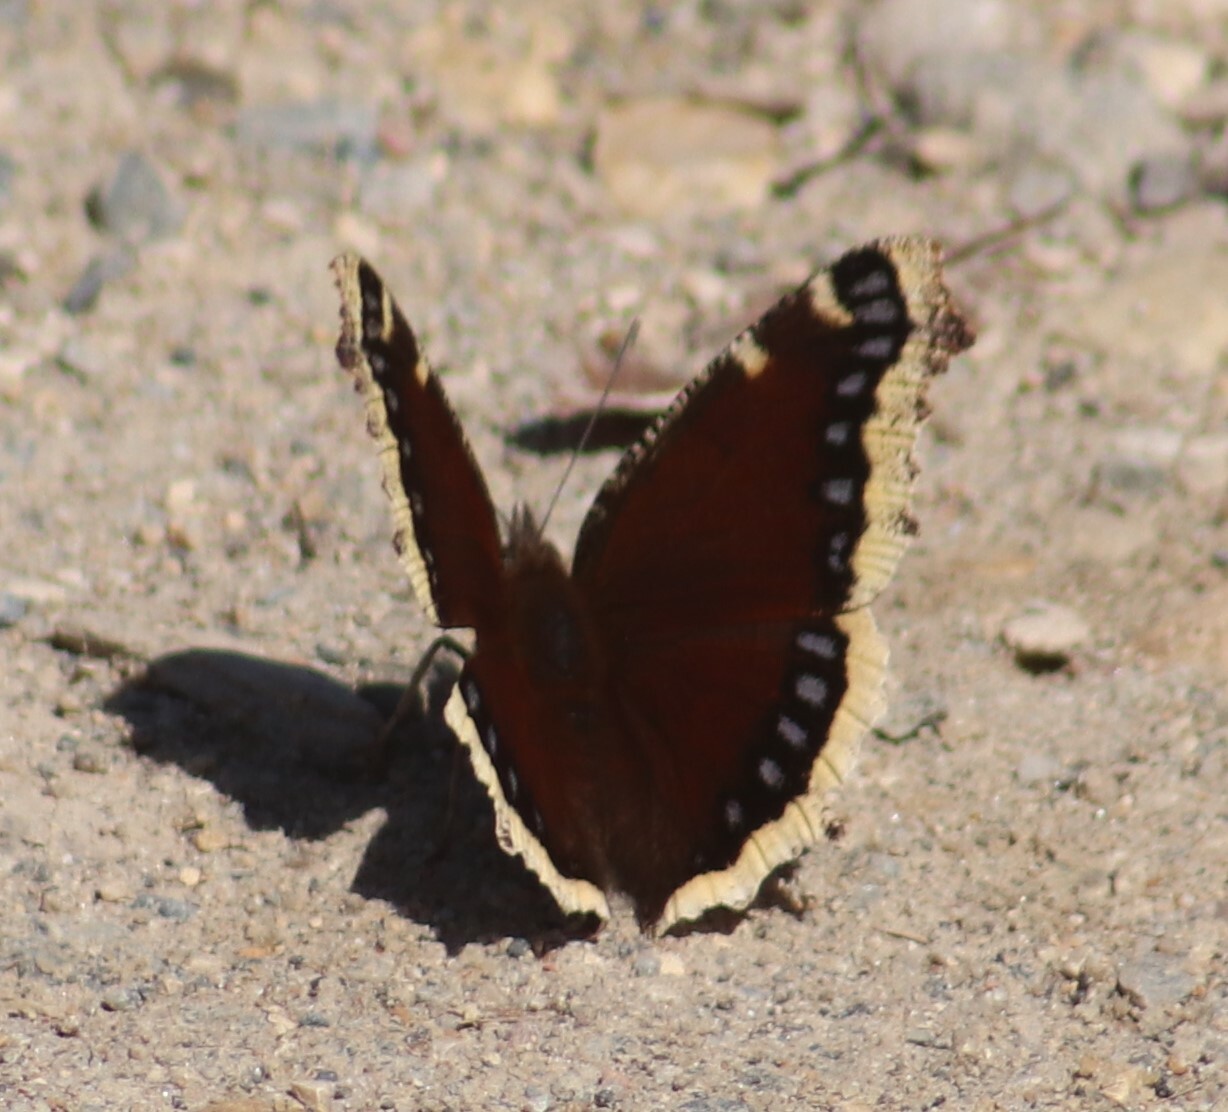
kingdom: Animalia
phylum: Arthropoda
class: Insecta
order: Lepidoptera
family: Nymphalidae
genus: Nymphalis
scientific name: Nymphalis antiopa
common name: Camberwell beauty
